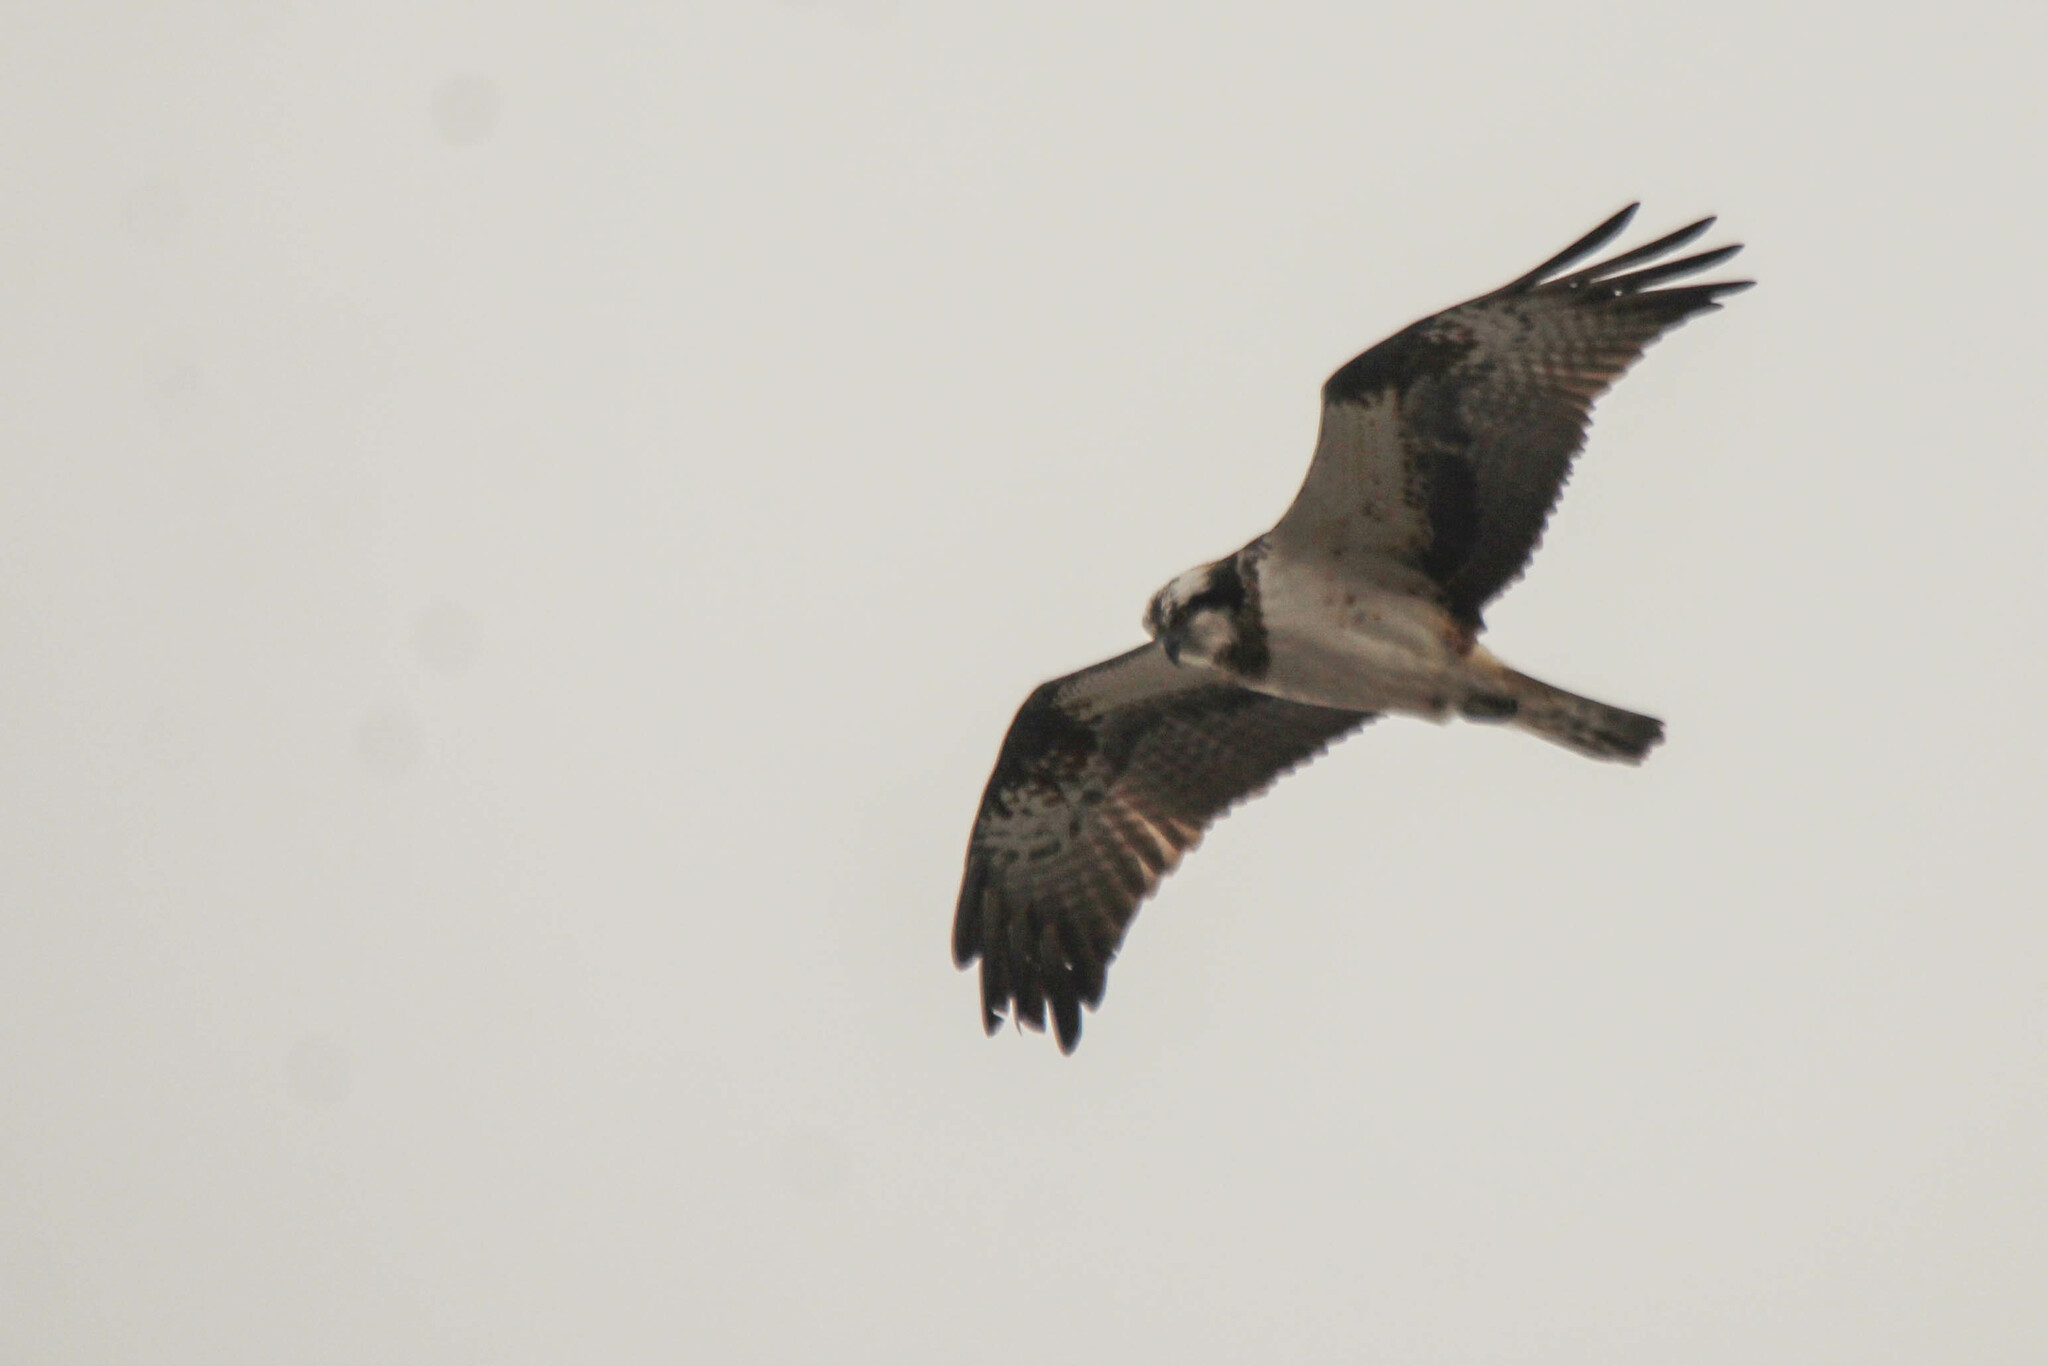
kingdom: Animalia
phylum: Chordata
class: Aves
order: Accipitriformes
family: Pandionidae
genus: Pandion
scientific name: Pandion haliaetus
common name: Osprey
